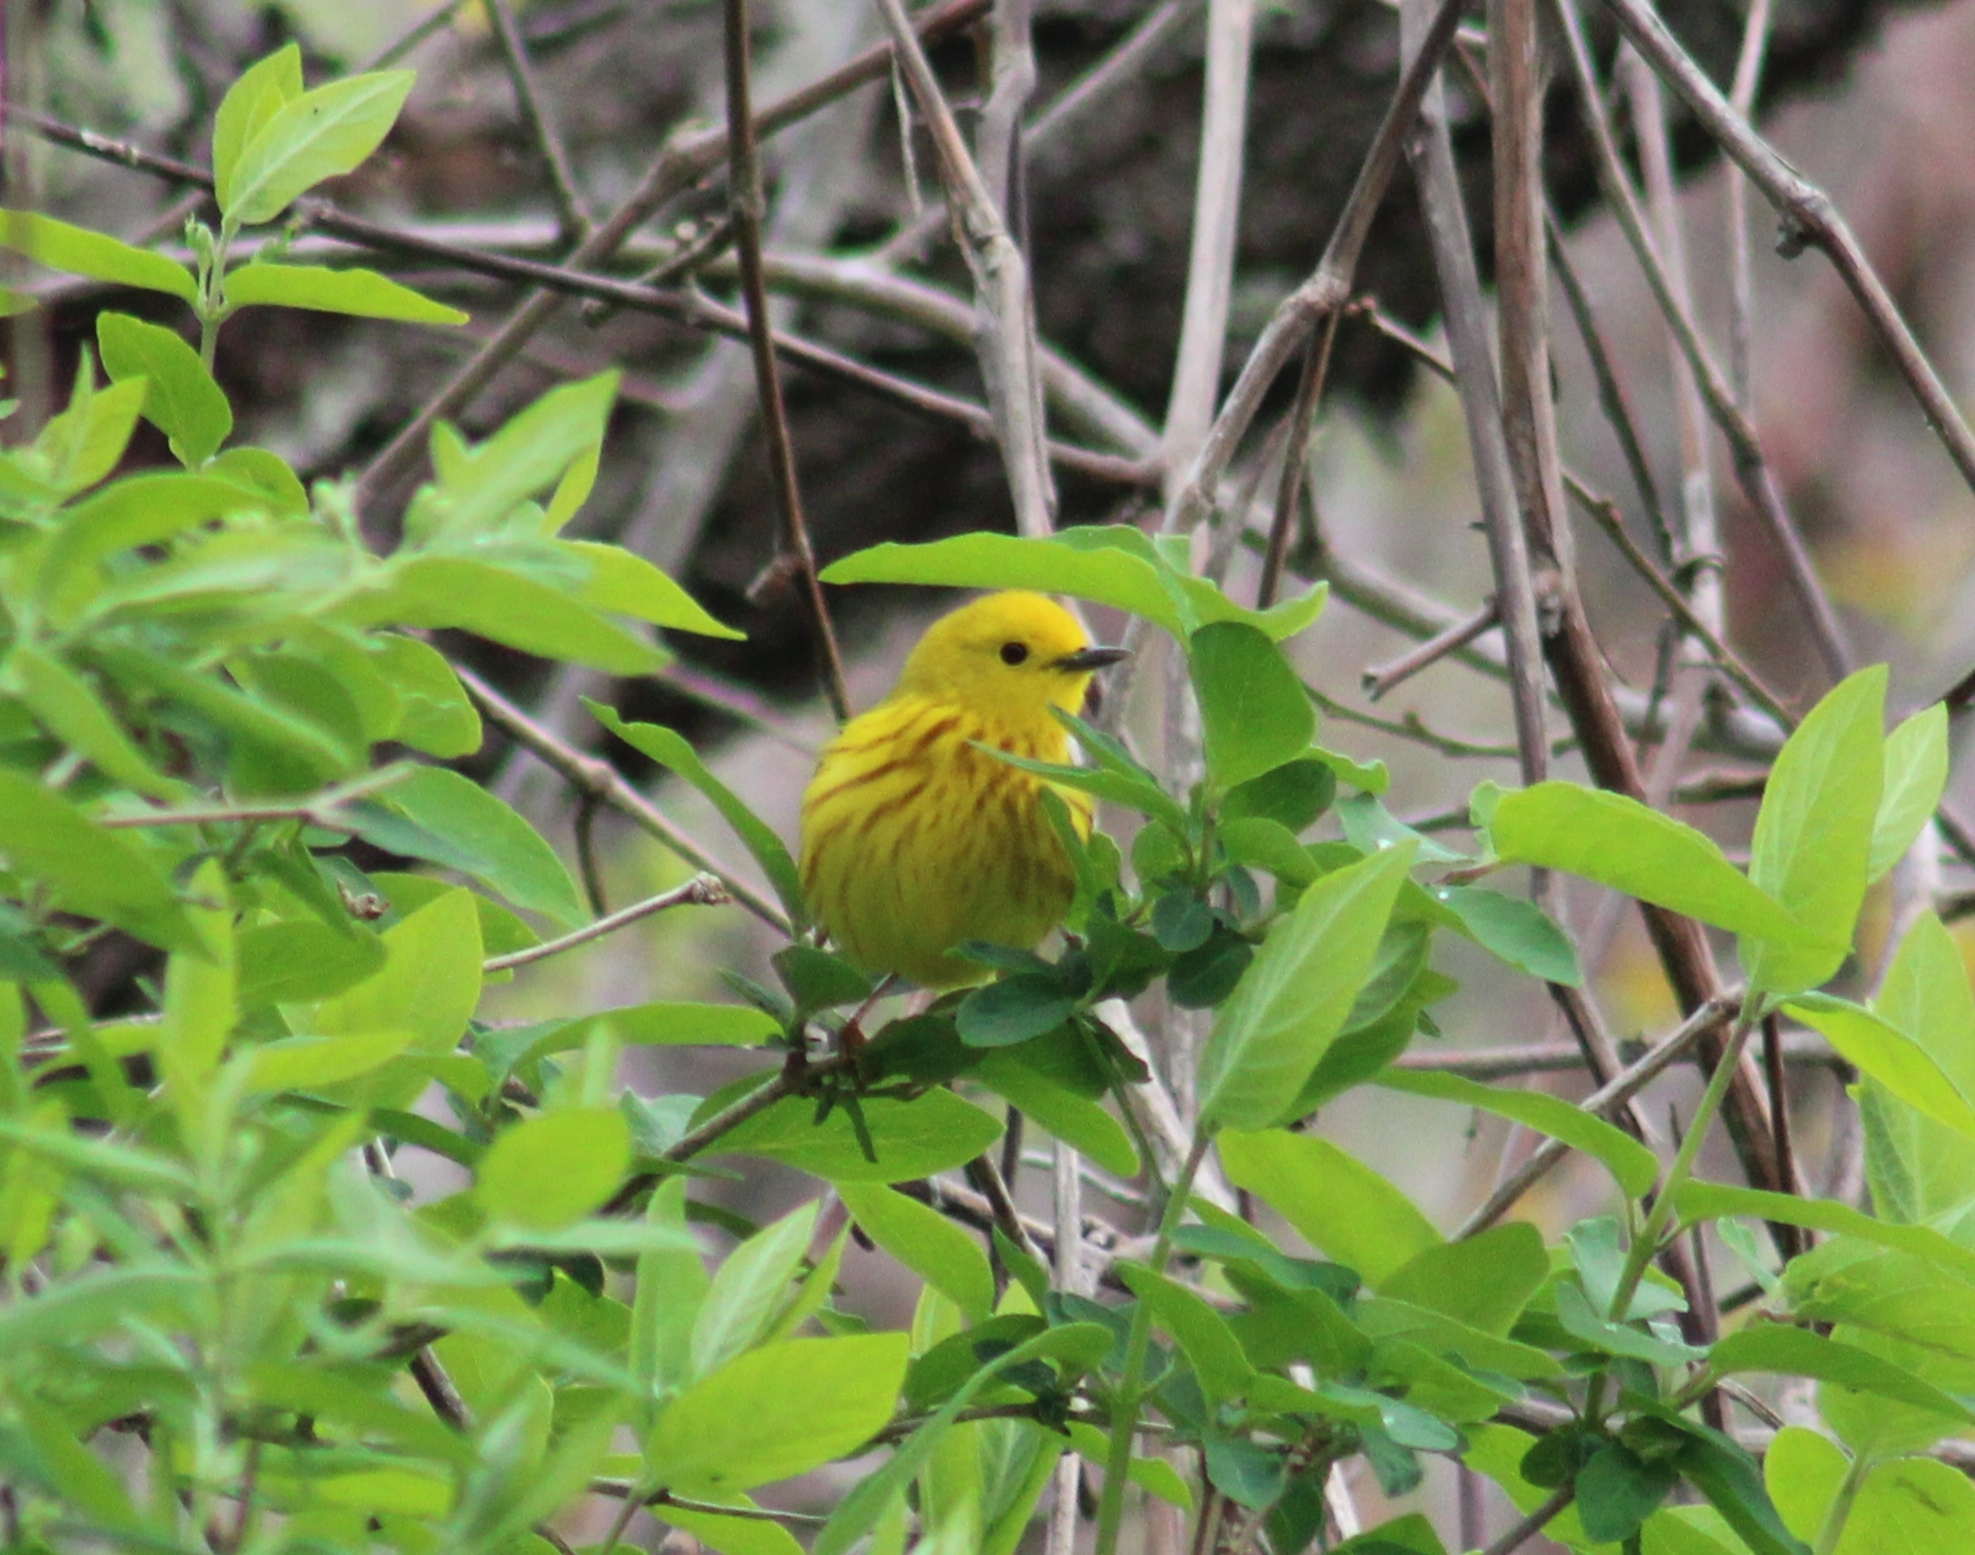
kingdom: Animalia
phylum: Chordata
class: Aves
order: Passeriformes
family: Parulidae
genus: Setophaga
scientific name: Setophaga petechia
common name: Yellow warbler
